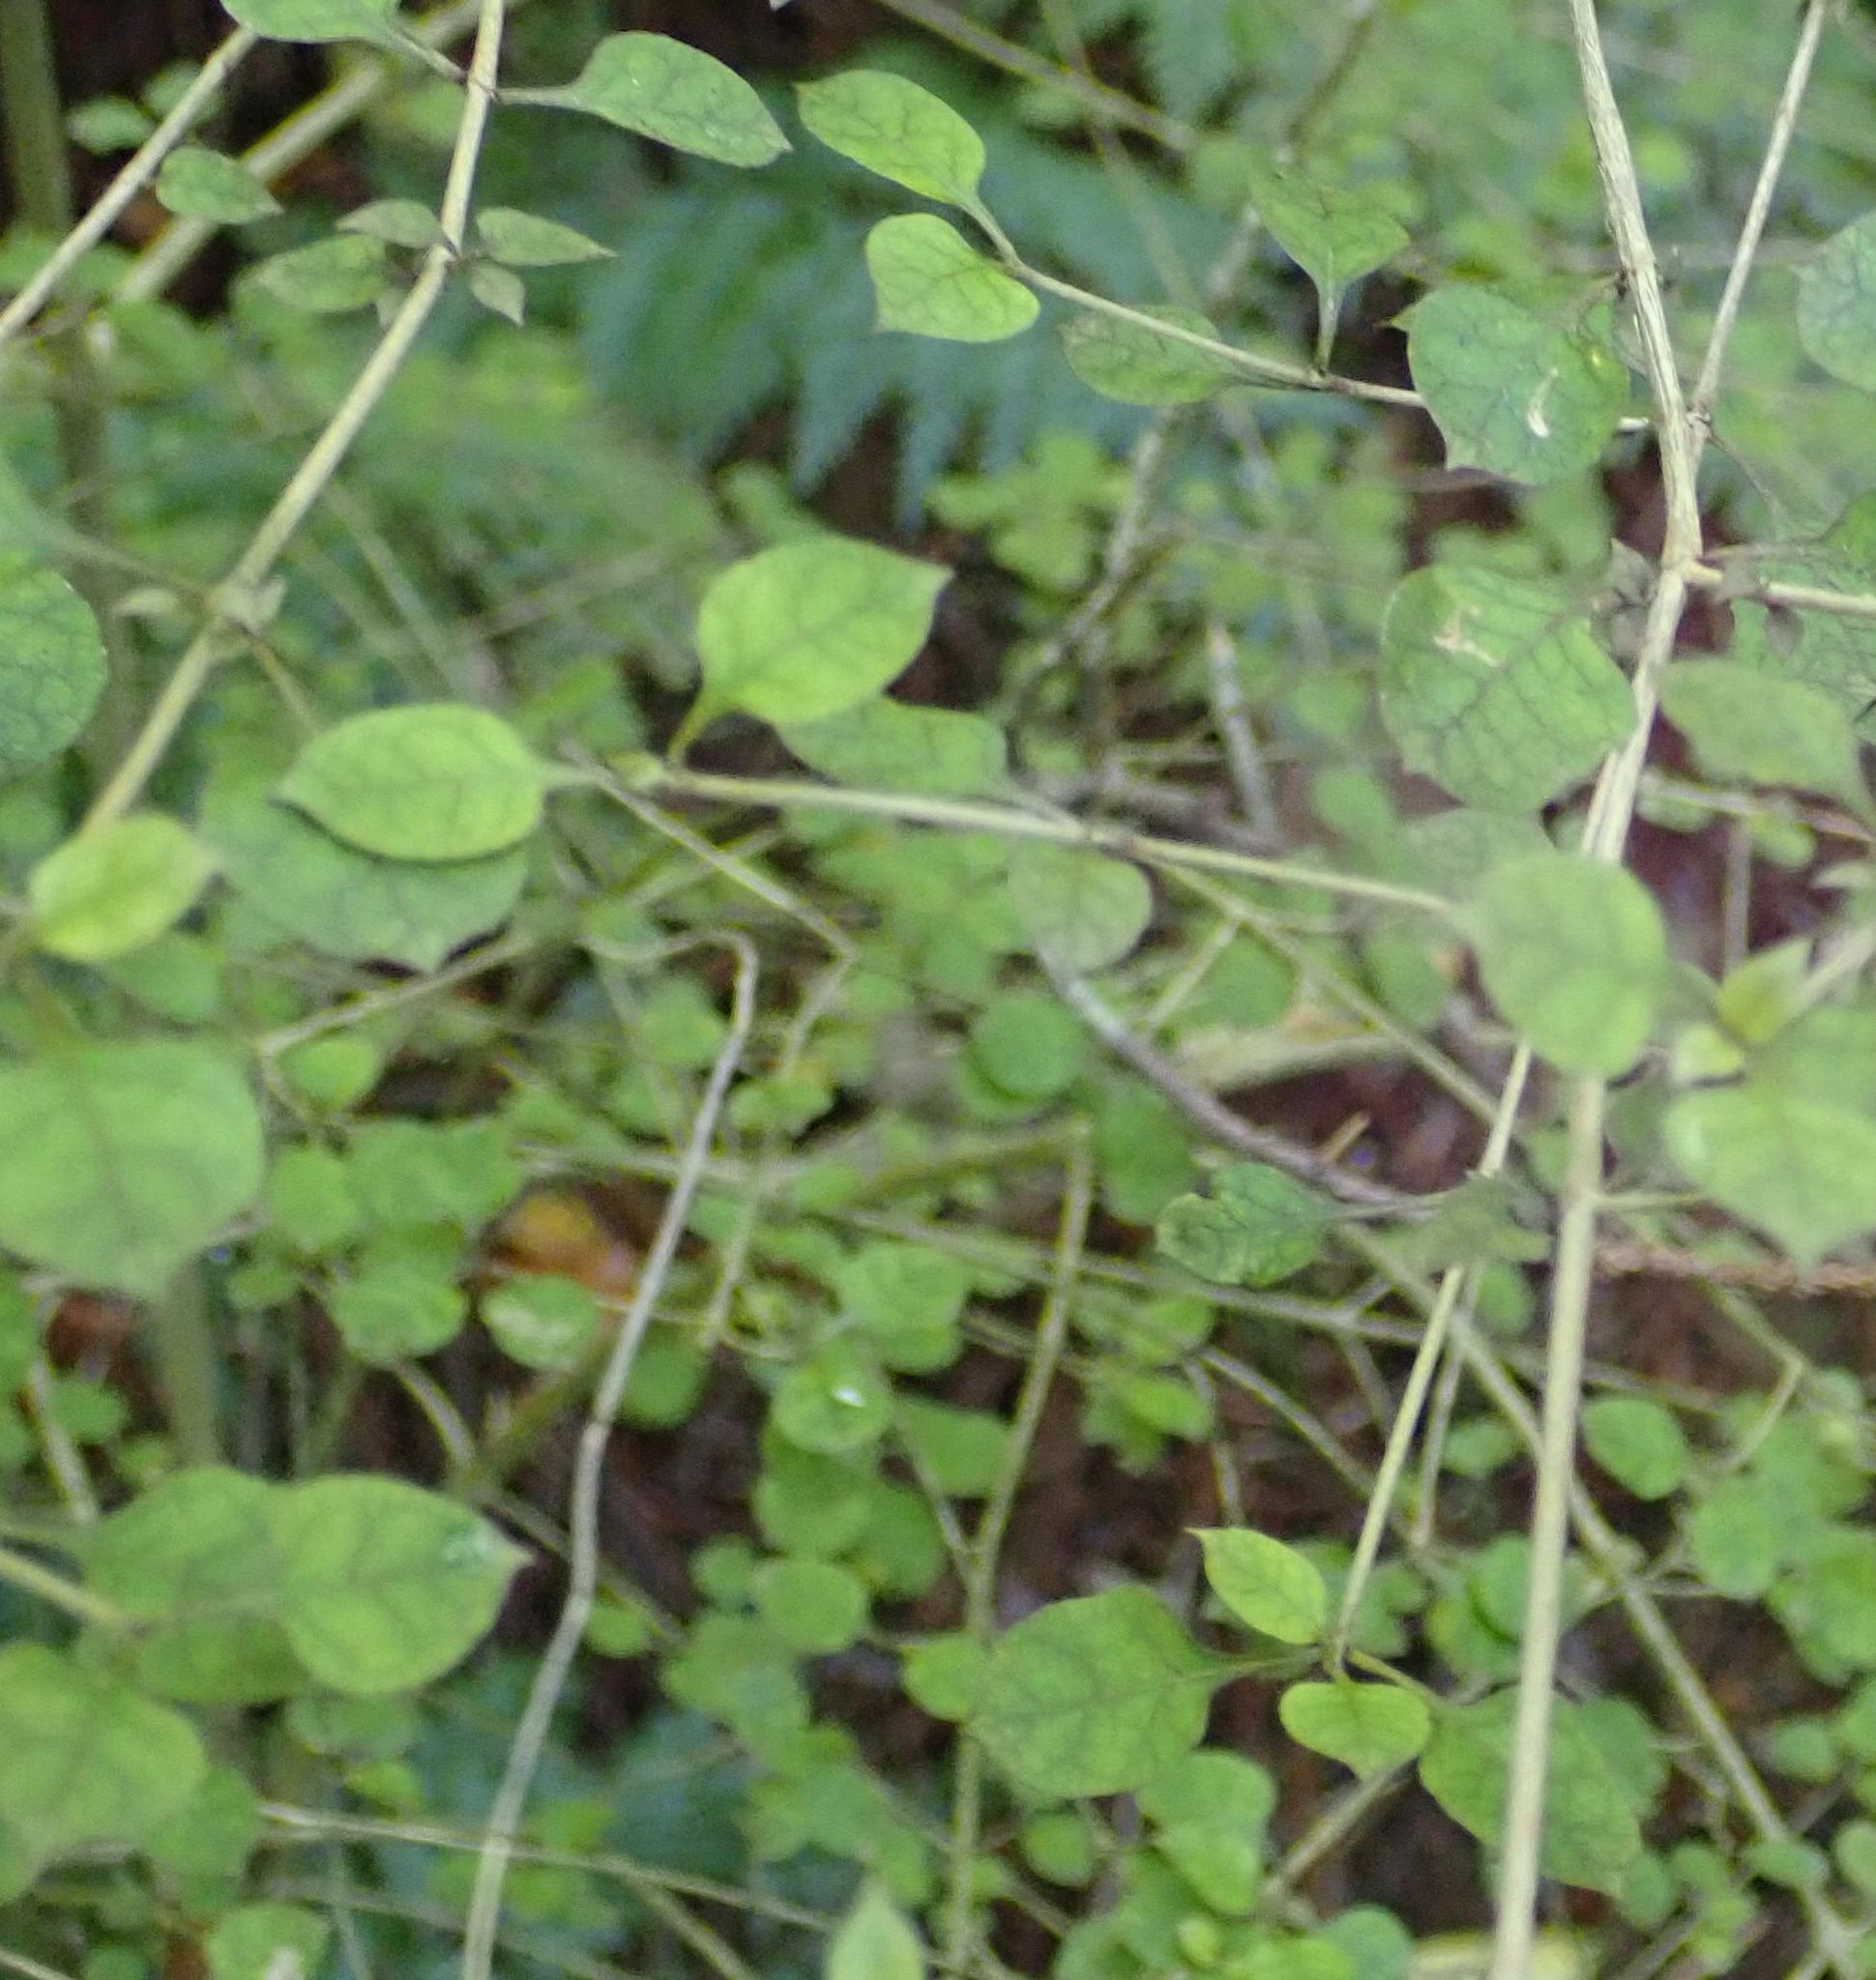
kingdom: Plantae
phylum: Tracheophyta
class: Magnoliopsida
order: Gentianales
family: Rubiaceae
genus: Coprosma
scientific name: Coprosma areolata
